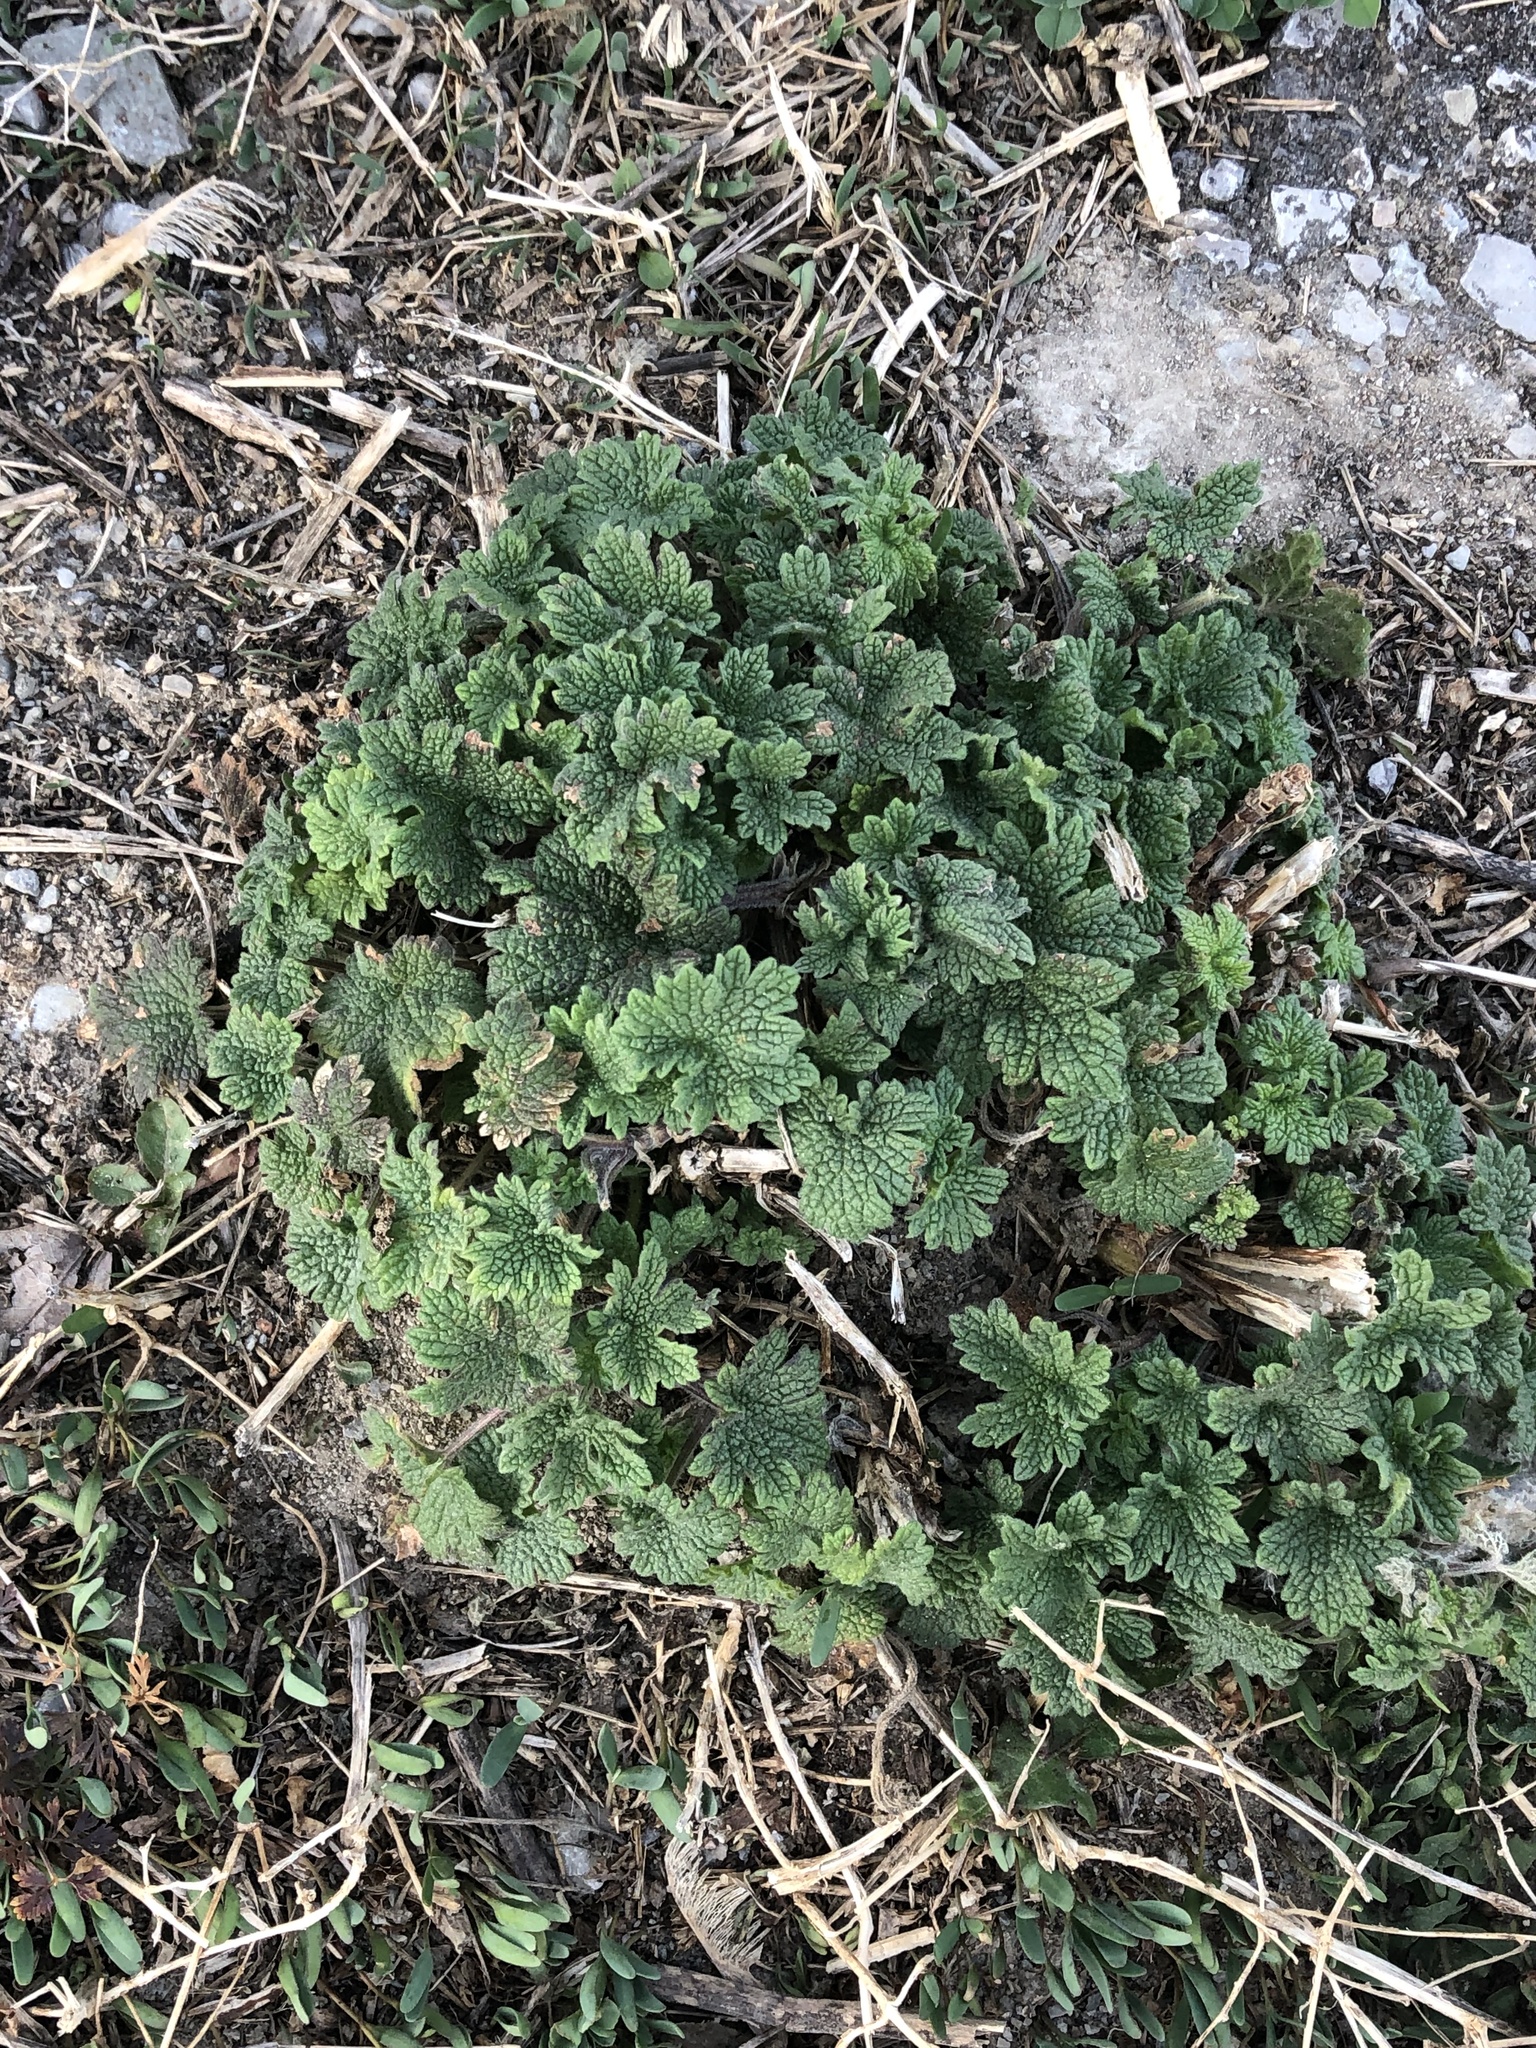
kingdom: Plantae
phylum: Tracheophyta
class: Magnoliopsida
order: Lamiales
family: Lamiaceae
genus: Leonurus
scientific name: Leonurus cardiaca
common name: Motherwort
